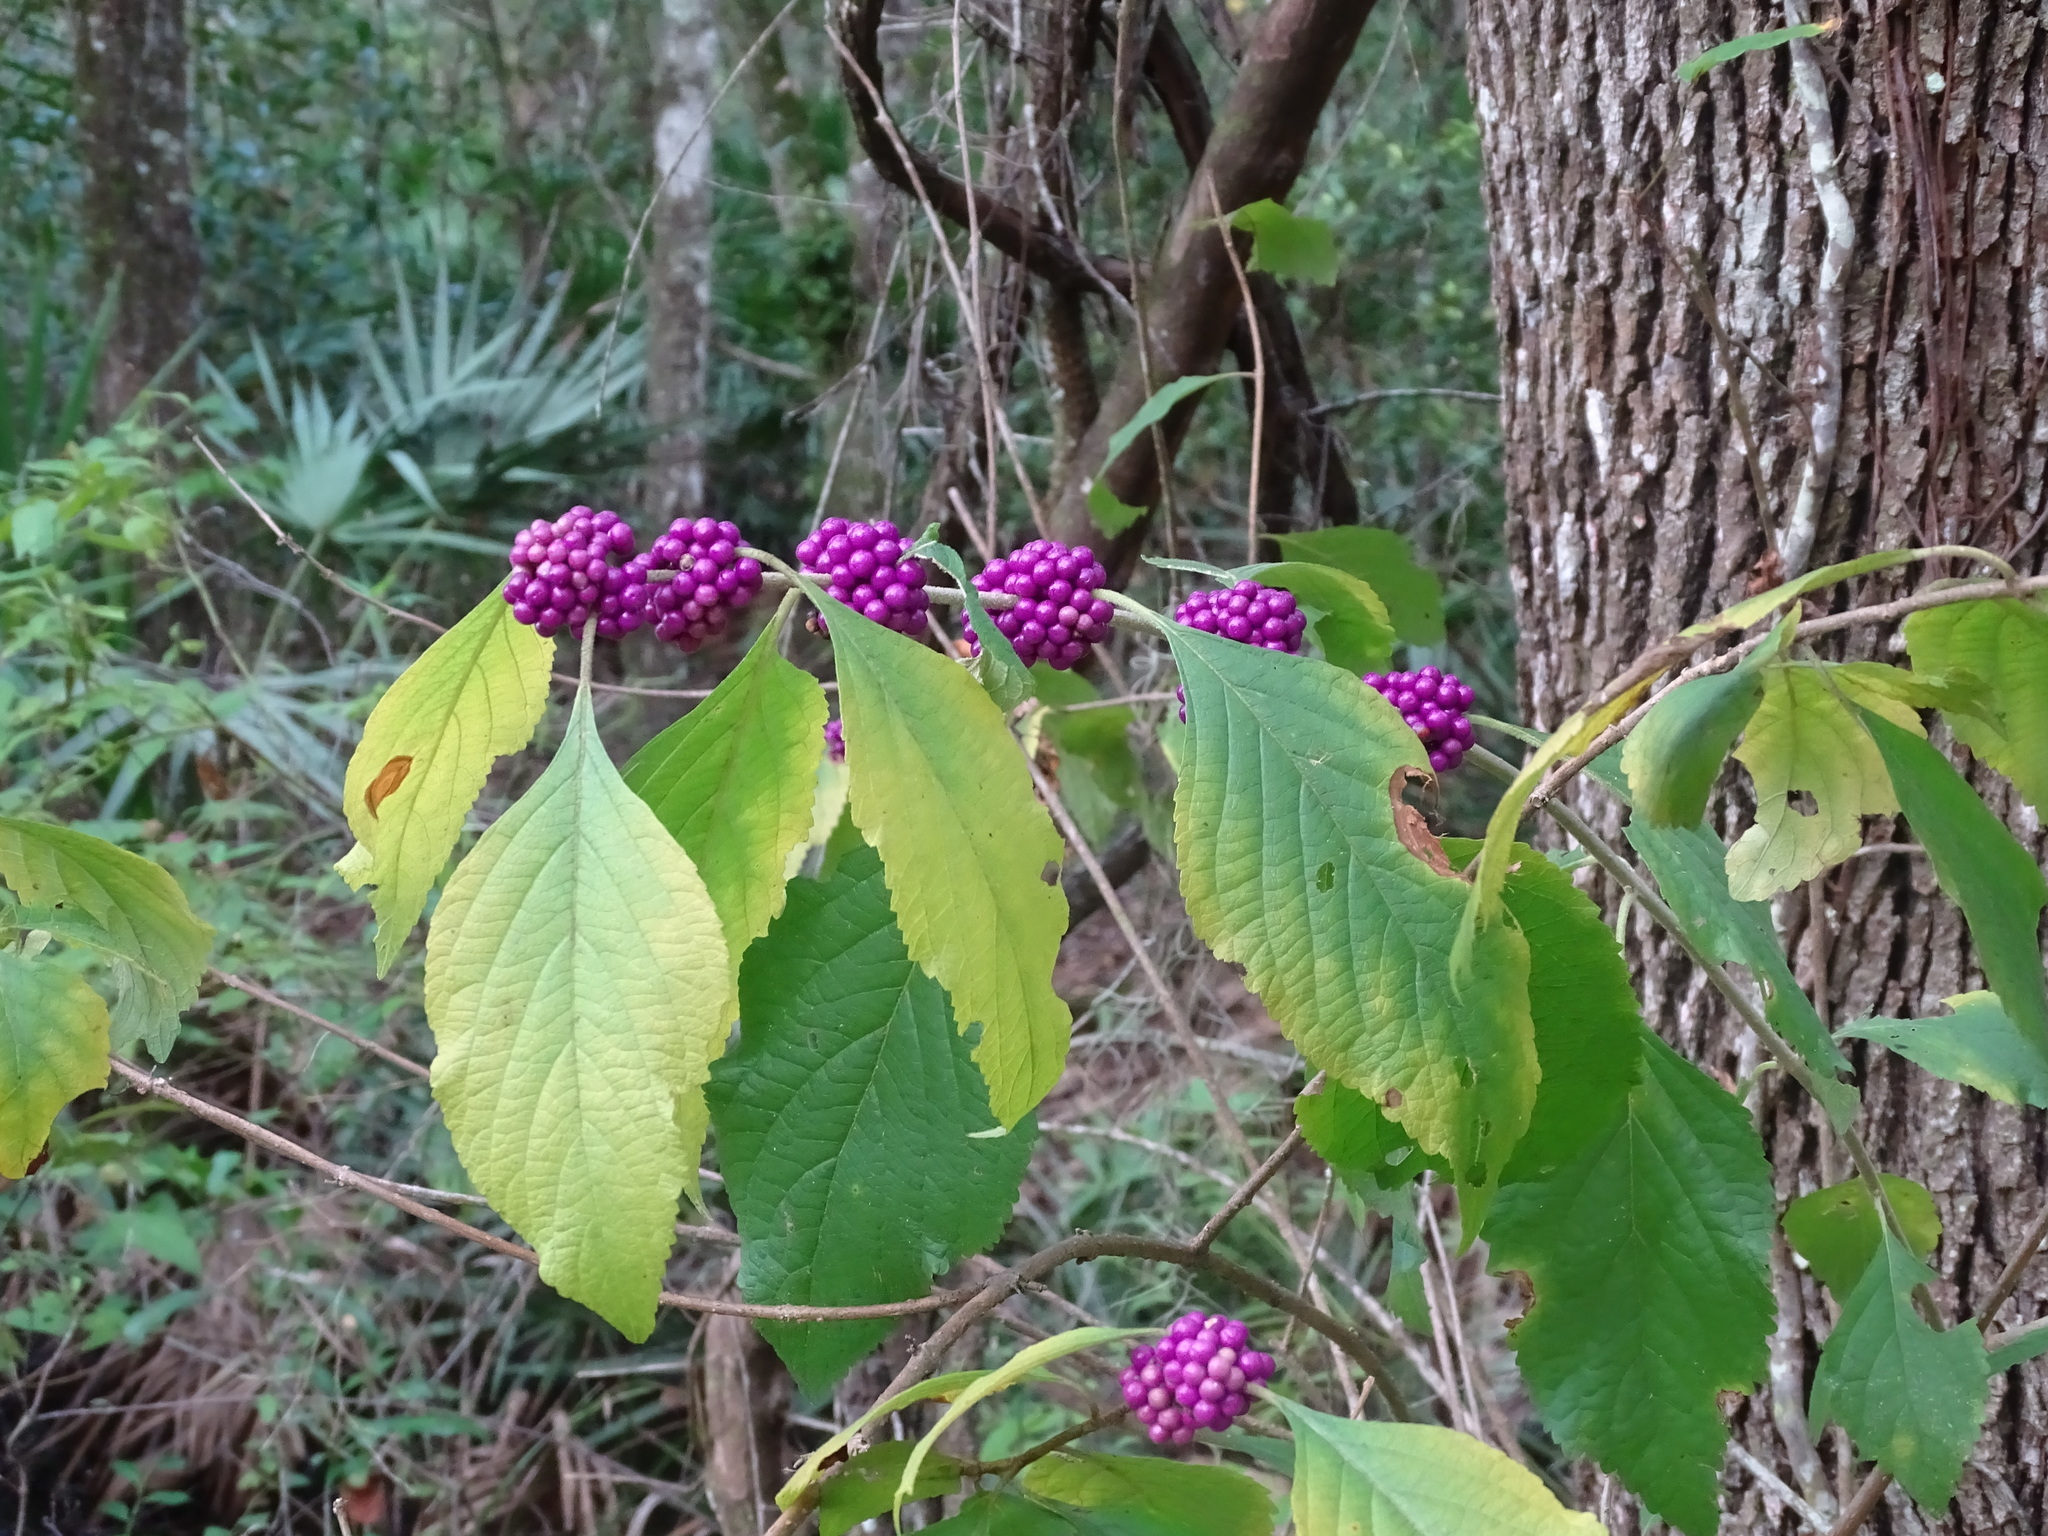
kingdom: Plantae
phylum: Tracheophyta
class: Magnoliopsida
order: Lamiales
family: Lamiaceae
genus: Callicarpa
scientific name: Callicarpa americana
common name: American beautyberry
